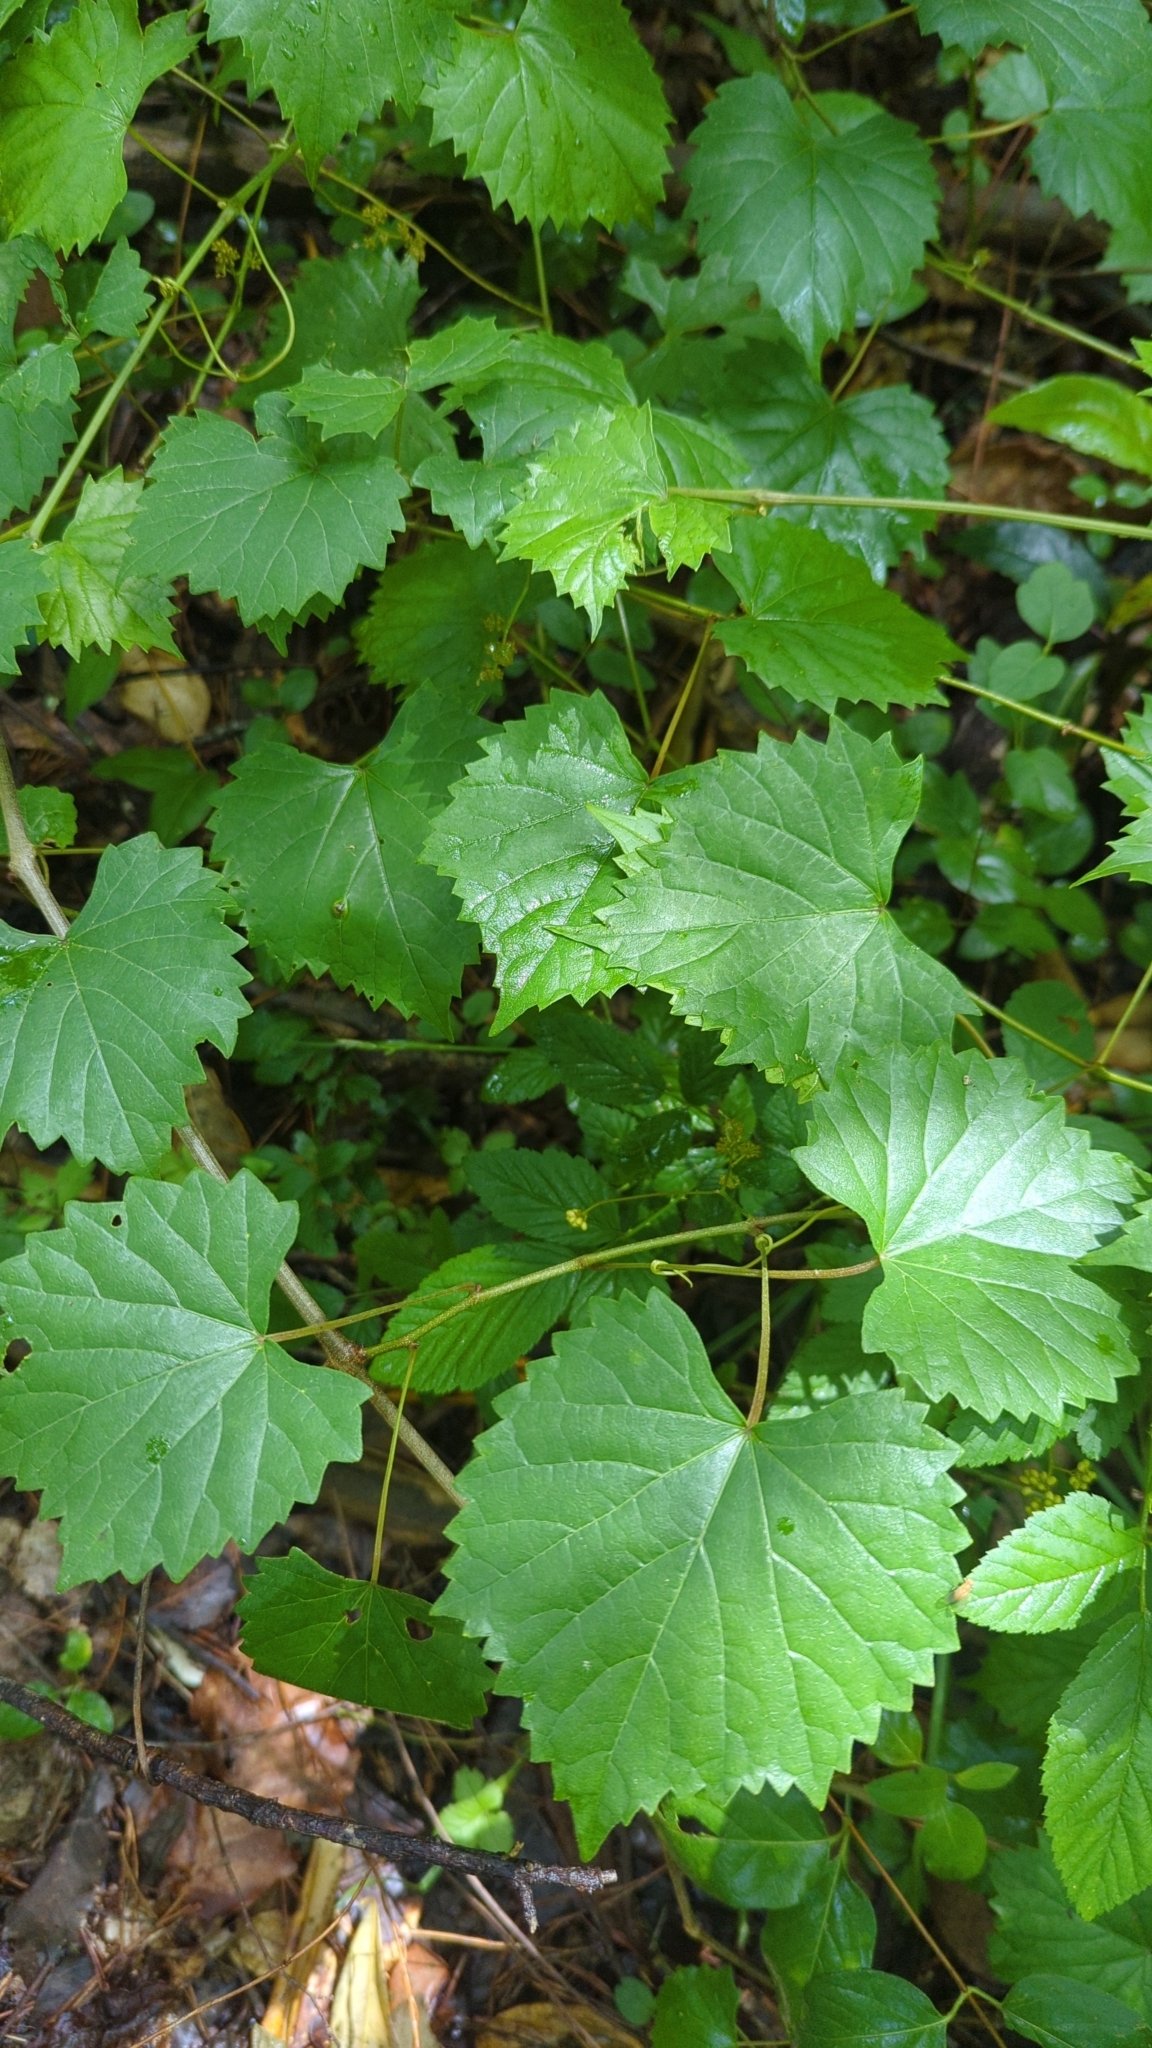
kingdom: Plantae
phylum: Tracheophyta
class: Magnoliopsida
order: Vitales
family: Vitaceae
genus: Vitis
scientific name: Vitis rotundifolia
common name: Muscadine grape
